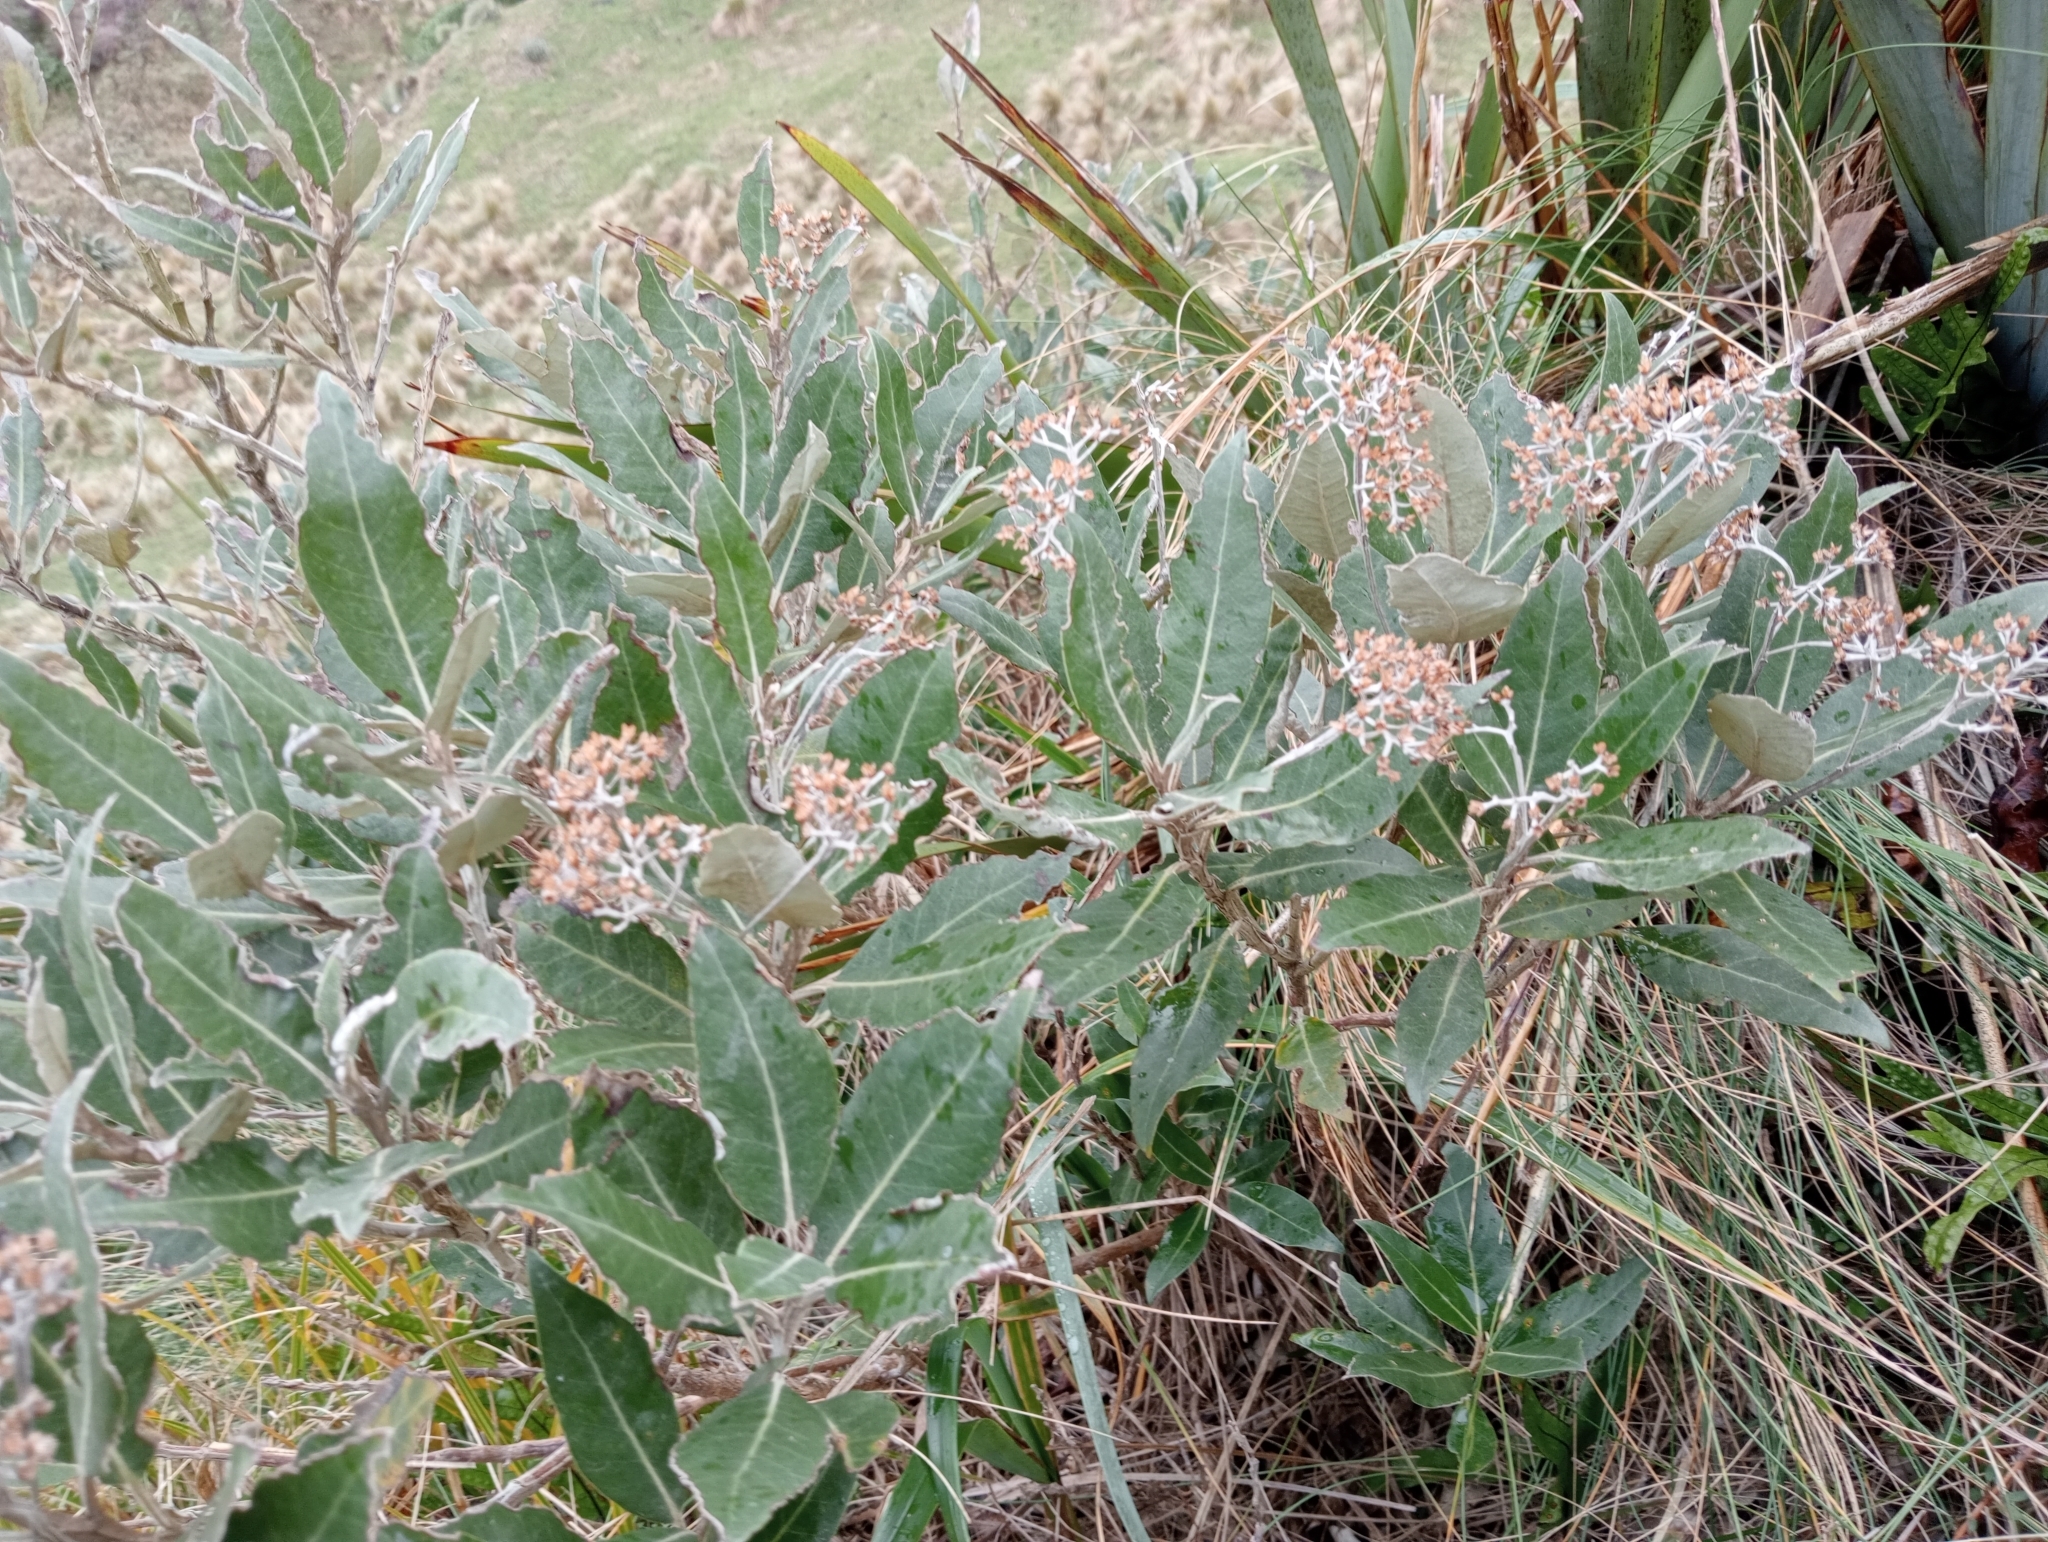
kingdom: Plantae
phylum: Tracheophyta
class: Magnoliopsida
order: Asterales
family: Asteraceae
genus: Olearia
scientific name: Olearia avicenniifolia
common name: Mangrove-leaf daisybush
